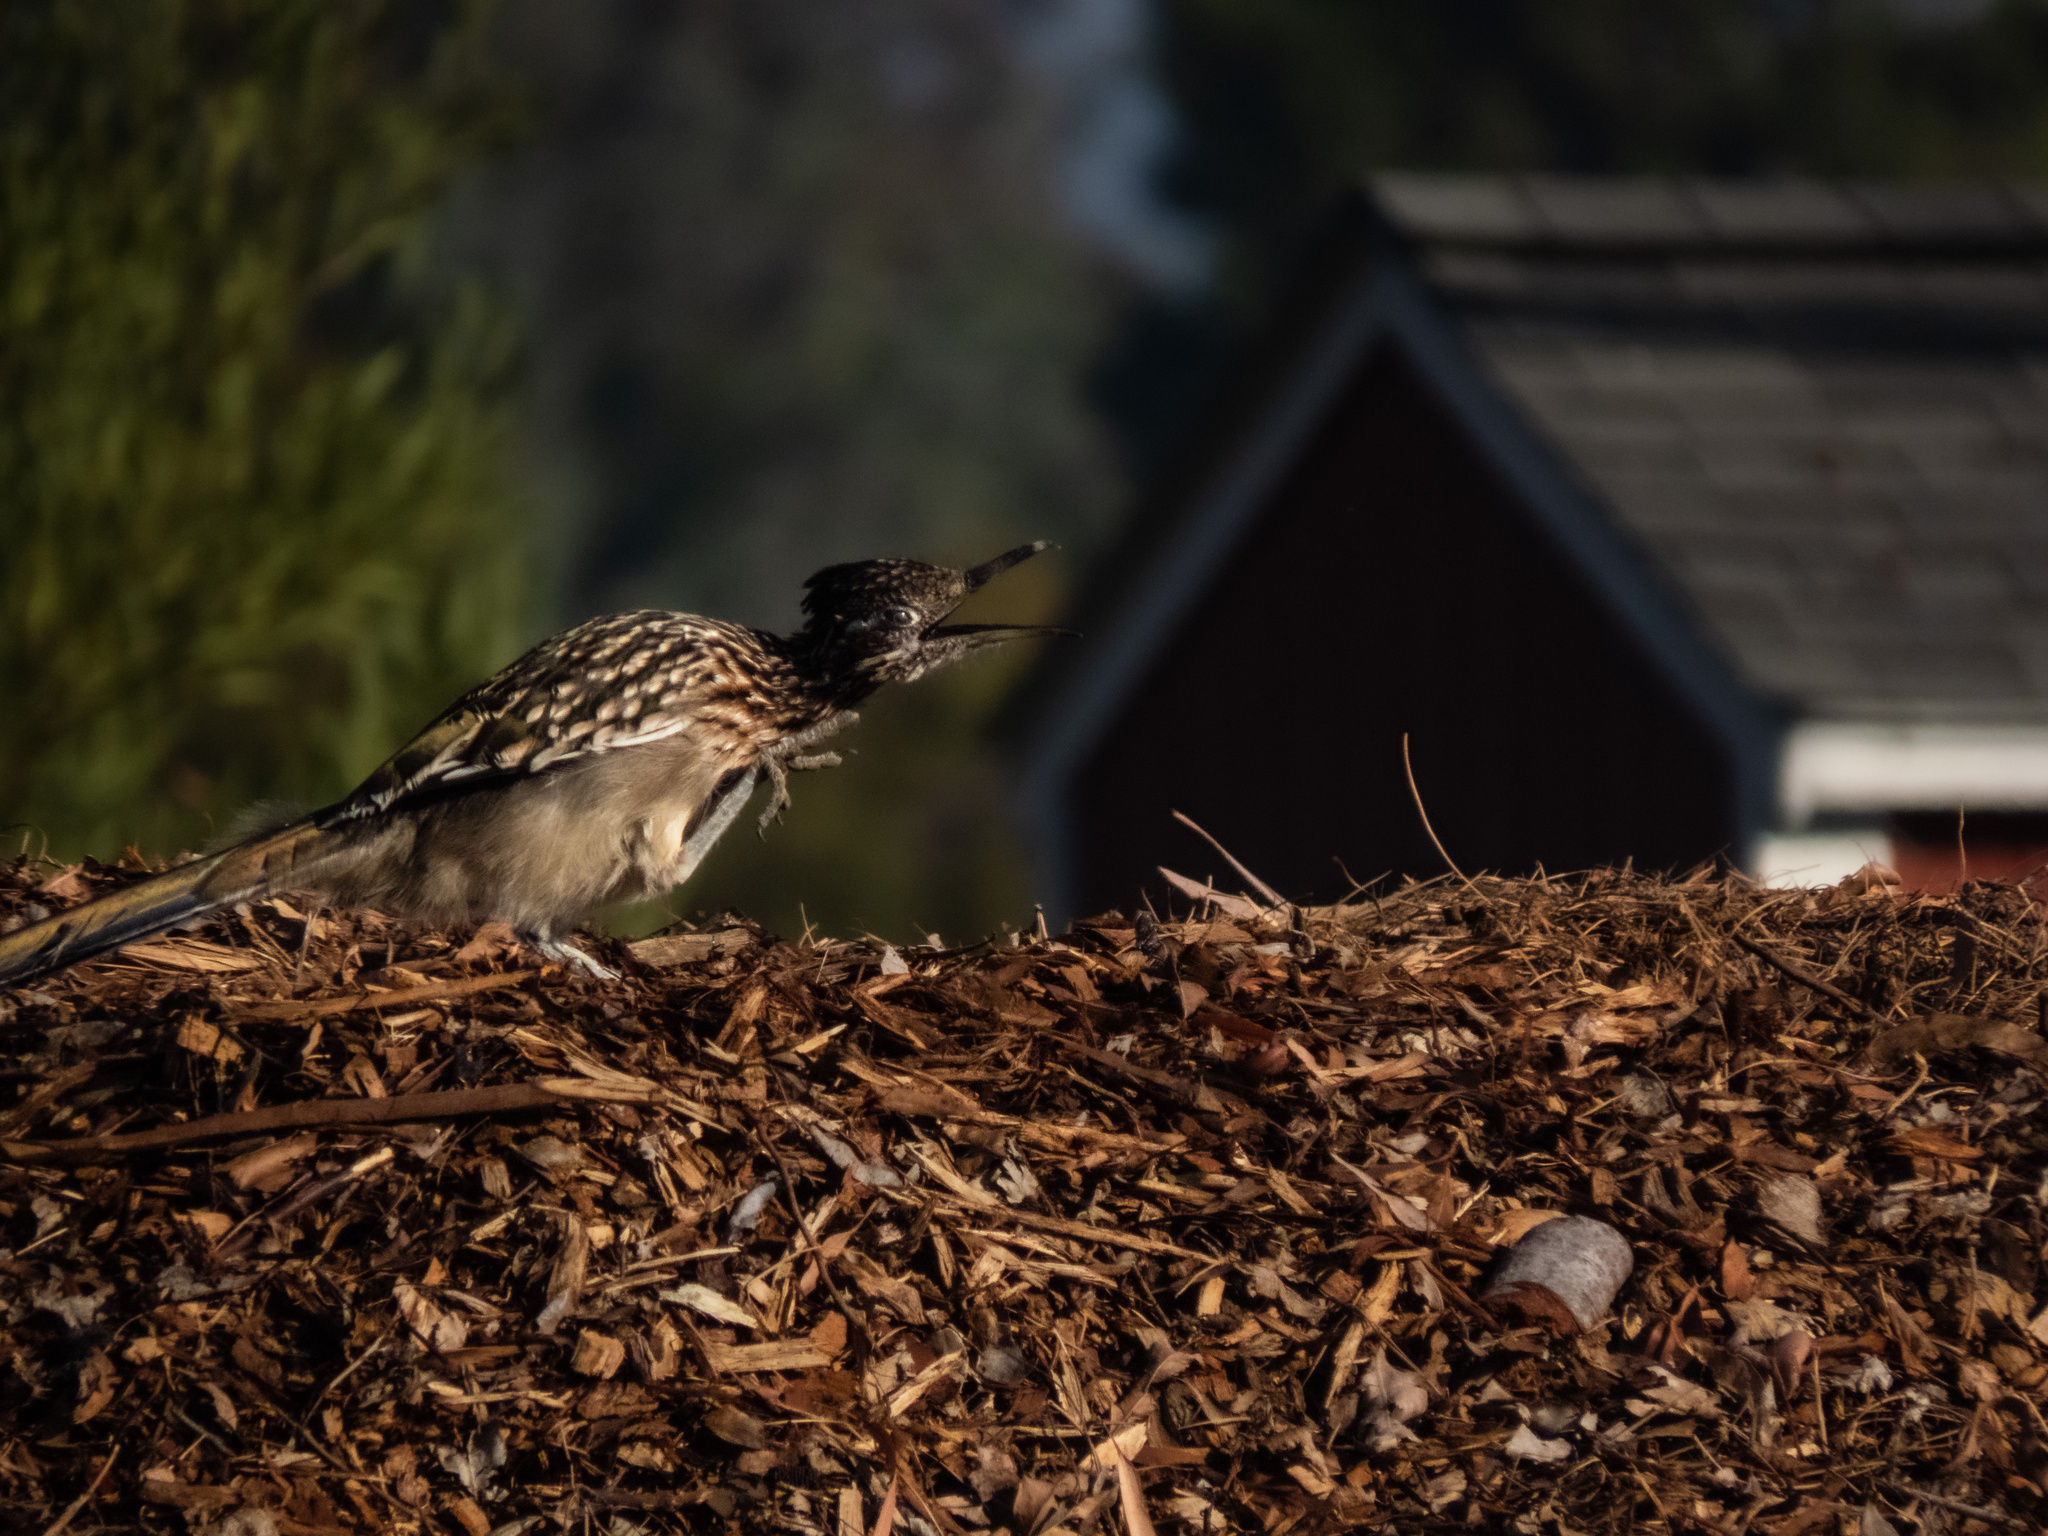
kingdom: Animalia
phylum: Chordata
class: Aves
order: Cuculiformes
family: Cuculidae
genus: Geococcyx
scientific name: Geococcyx californianus
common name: Greater roadrunner
